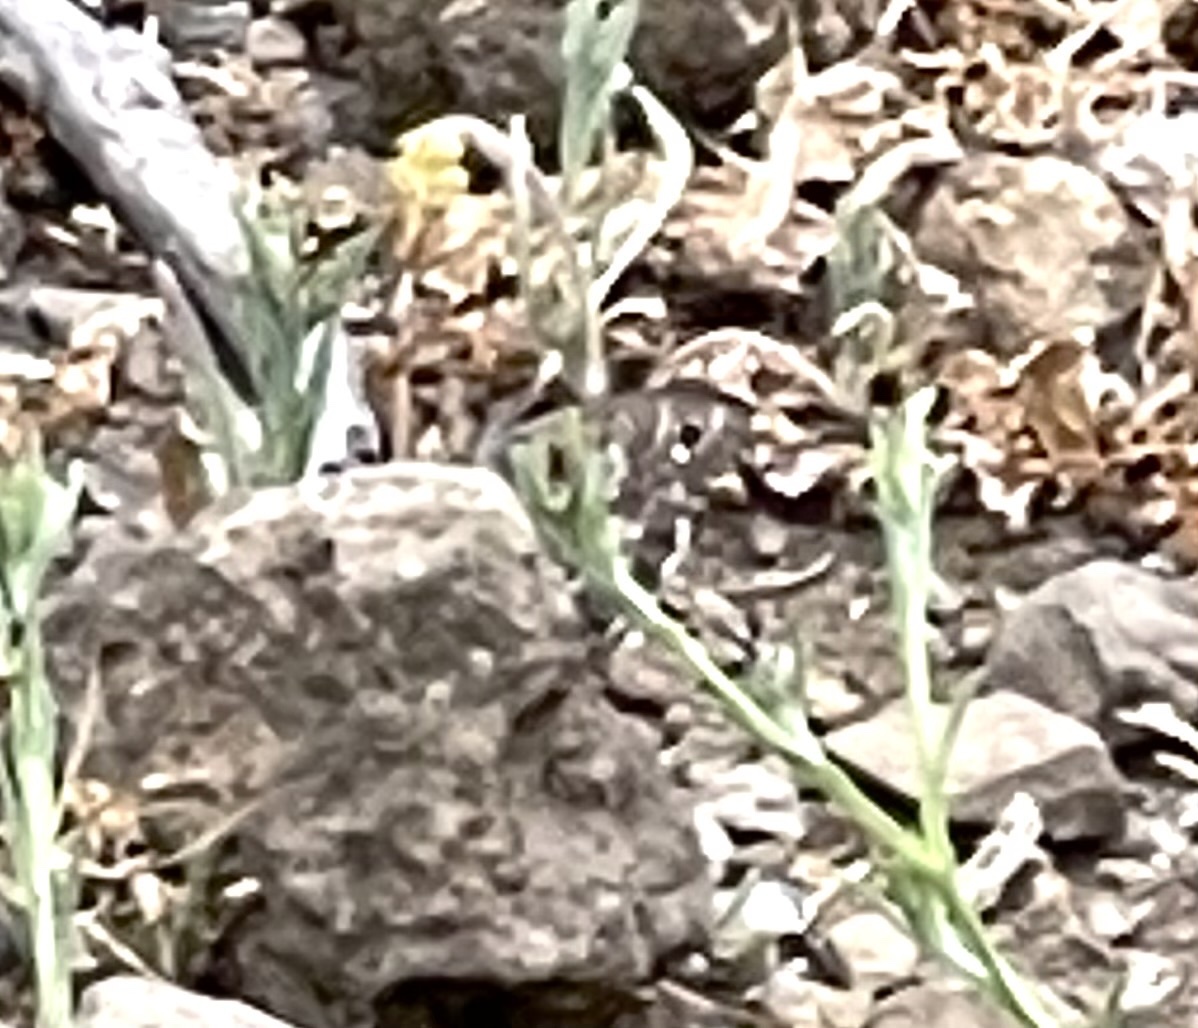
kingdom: Animalia
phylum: Arthropoda
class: Insecta
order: Lepidoptera
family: Nymphalidae
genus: Hipparchia
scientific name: Hipparchia tamadabae
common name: Gran canaria grayling
